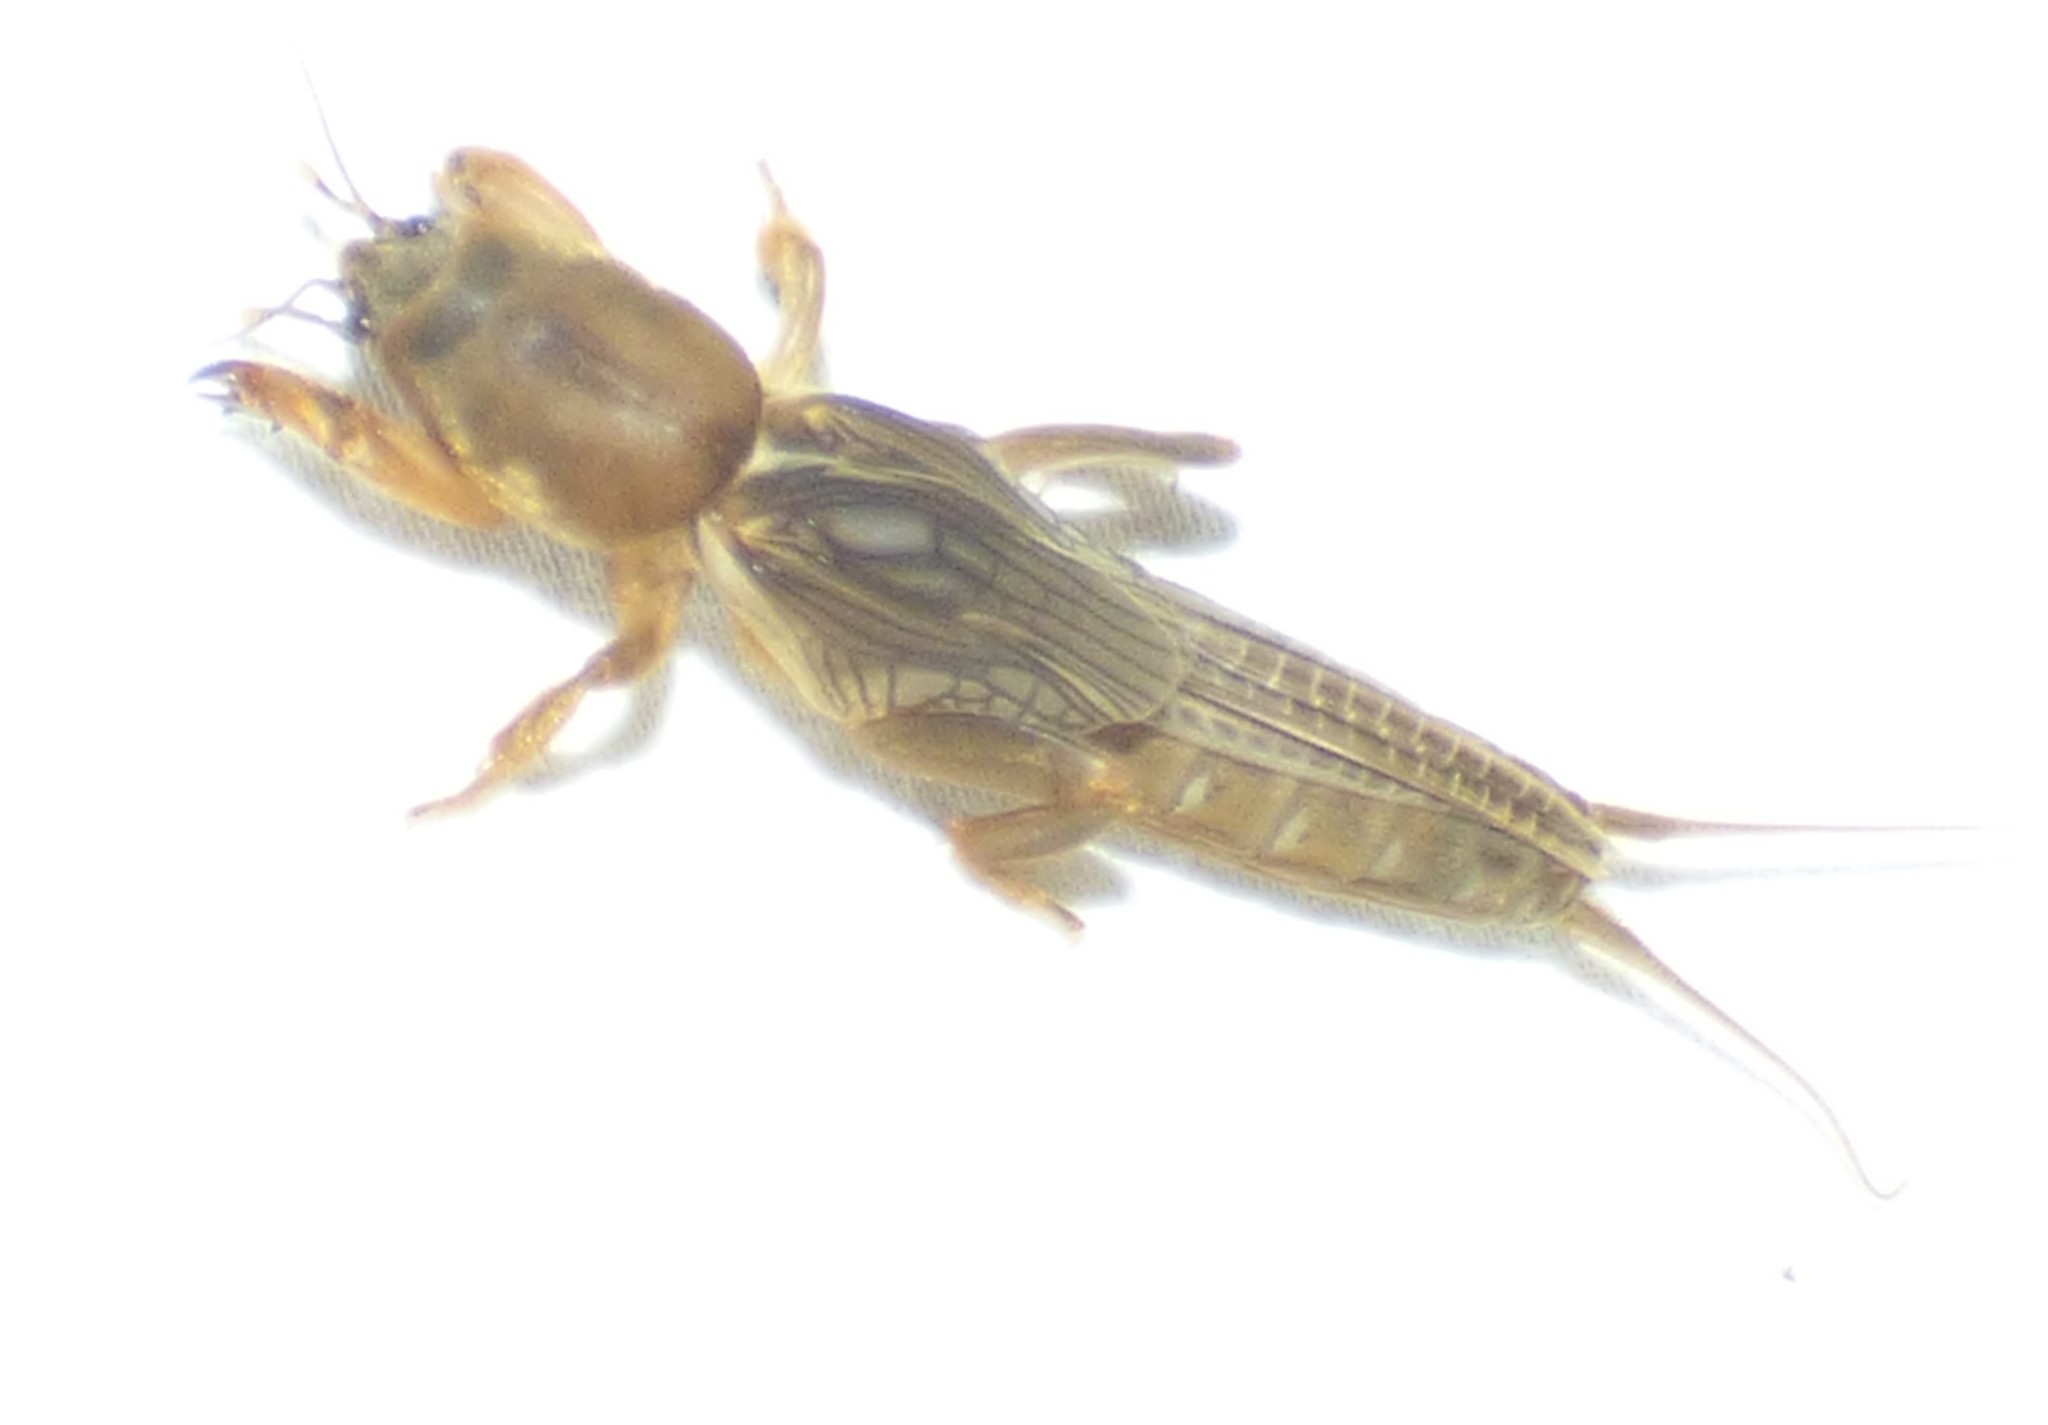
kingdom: Animalia
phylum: Arthropoda
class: Insecta
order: Orthoptera
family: Gryllotalpidae
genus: Neocurtilla
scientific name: Neocurtilla hexadactyla
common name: Northern mole cricket
